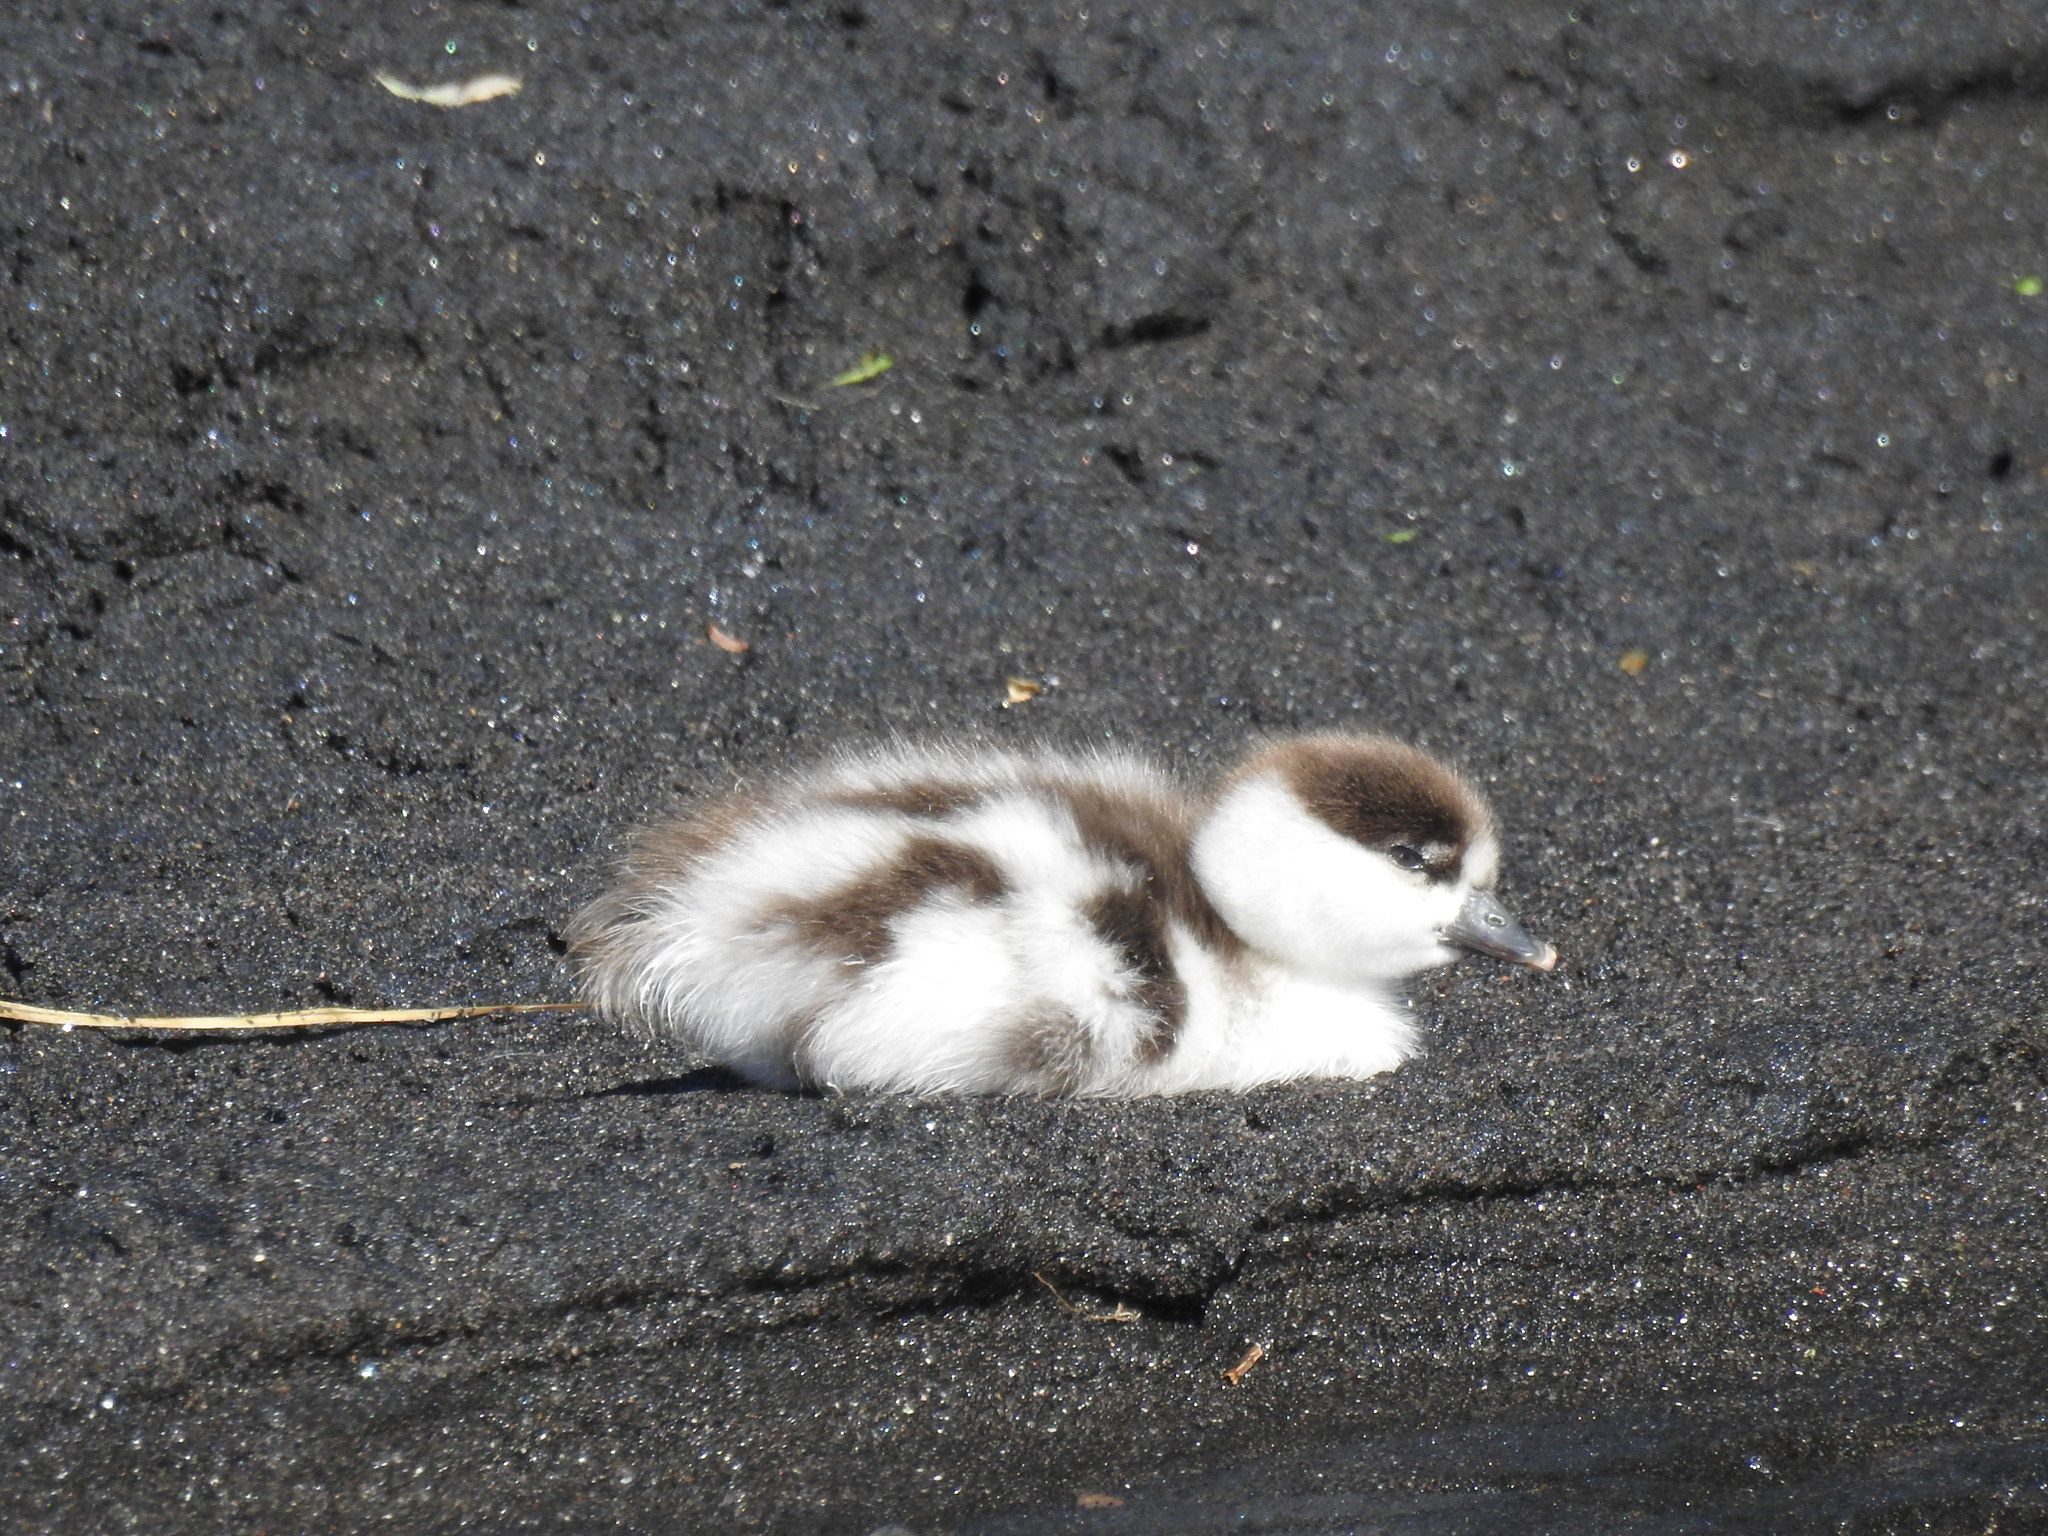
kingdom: Animalia
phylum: Chordata
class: Aves
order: Anseriformes
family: Anatidae
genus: Tadorna
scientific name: Tadorna variegata
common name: Paradise shelduck
